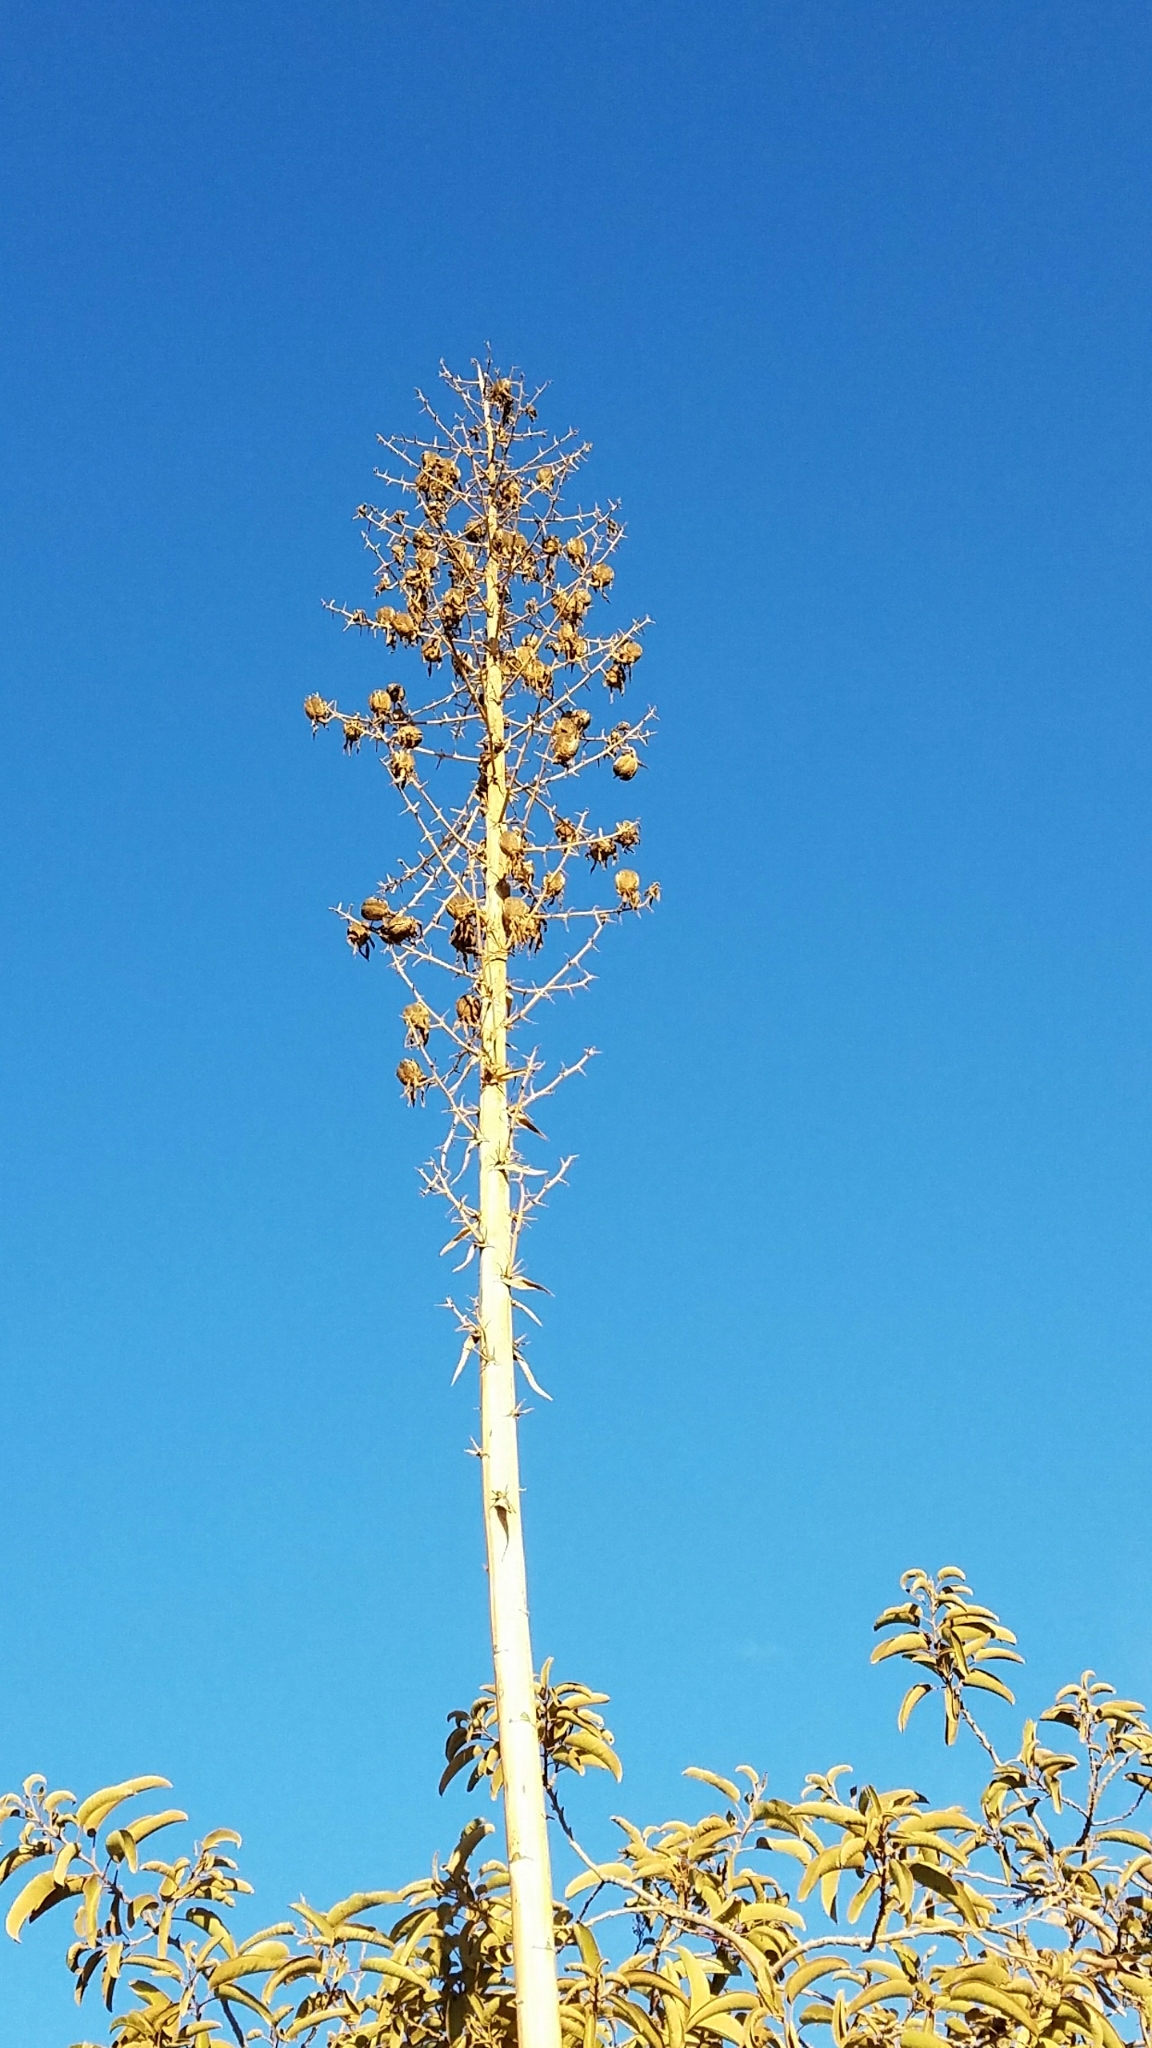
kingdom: Plantae
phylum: Tracheophyta
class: Liliopsida
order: Asparagales
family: Asparagaceae
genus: Hesperoyucca
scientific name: Hesperoyucca whipplei
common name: Our lord's-candle
